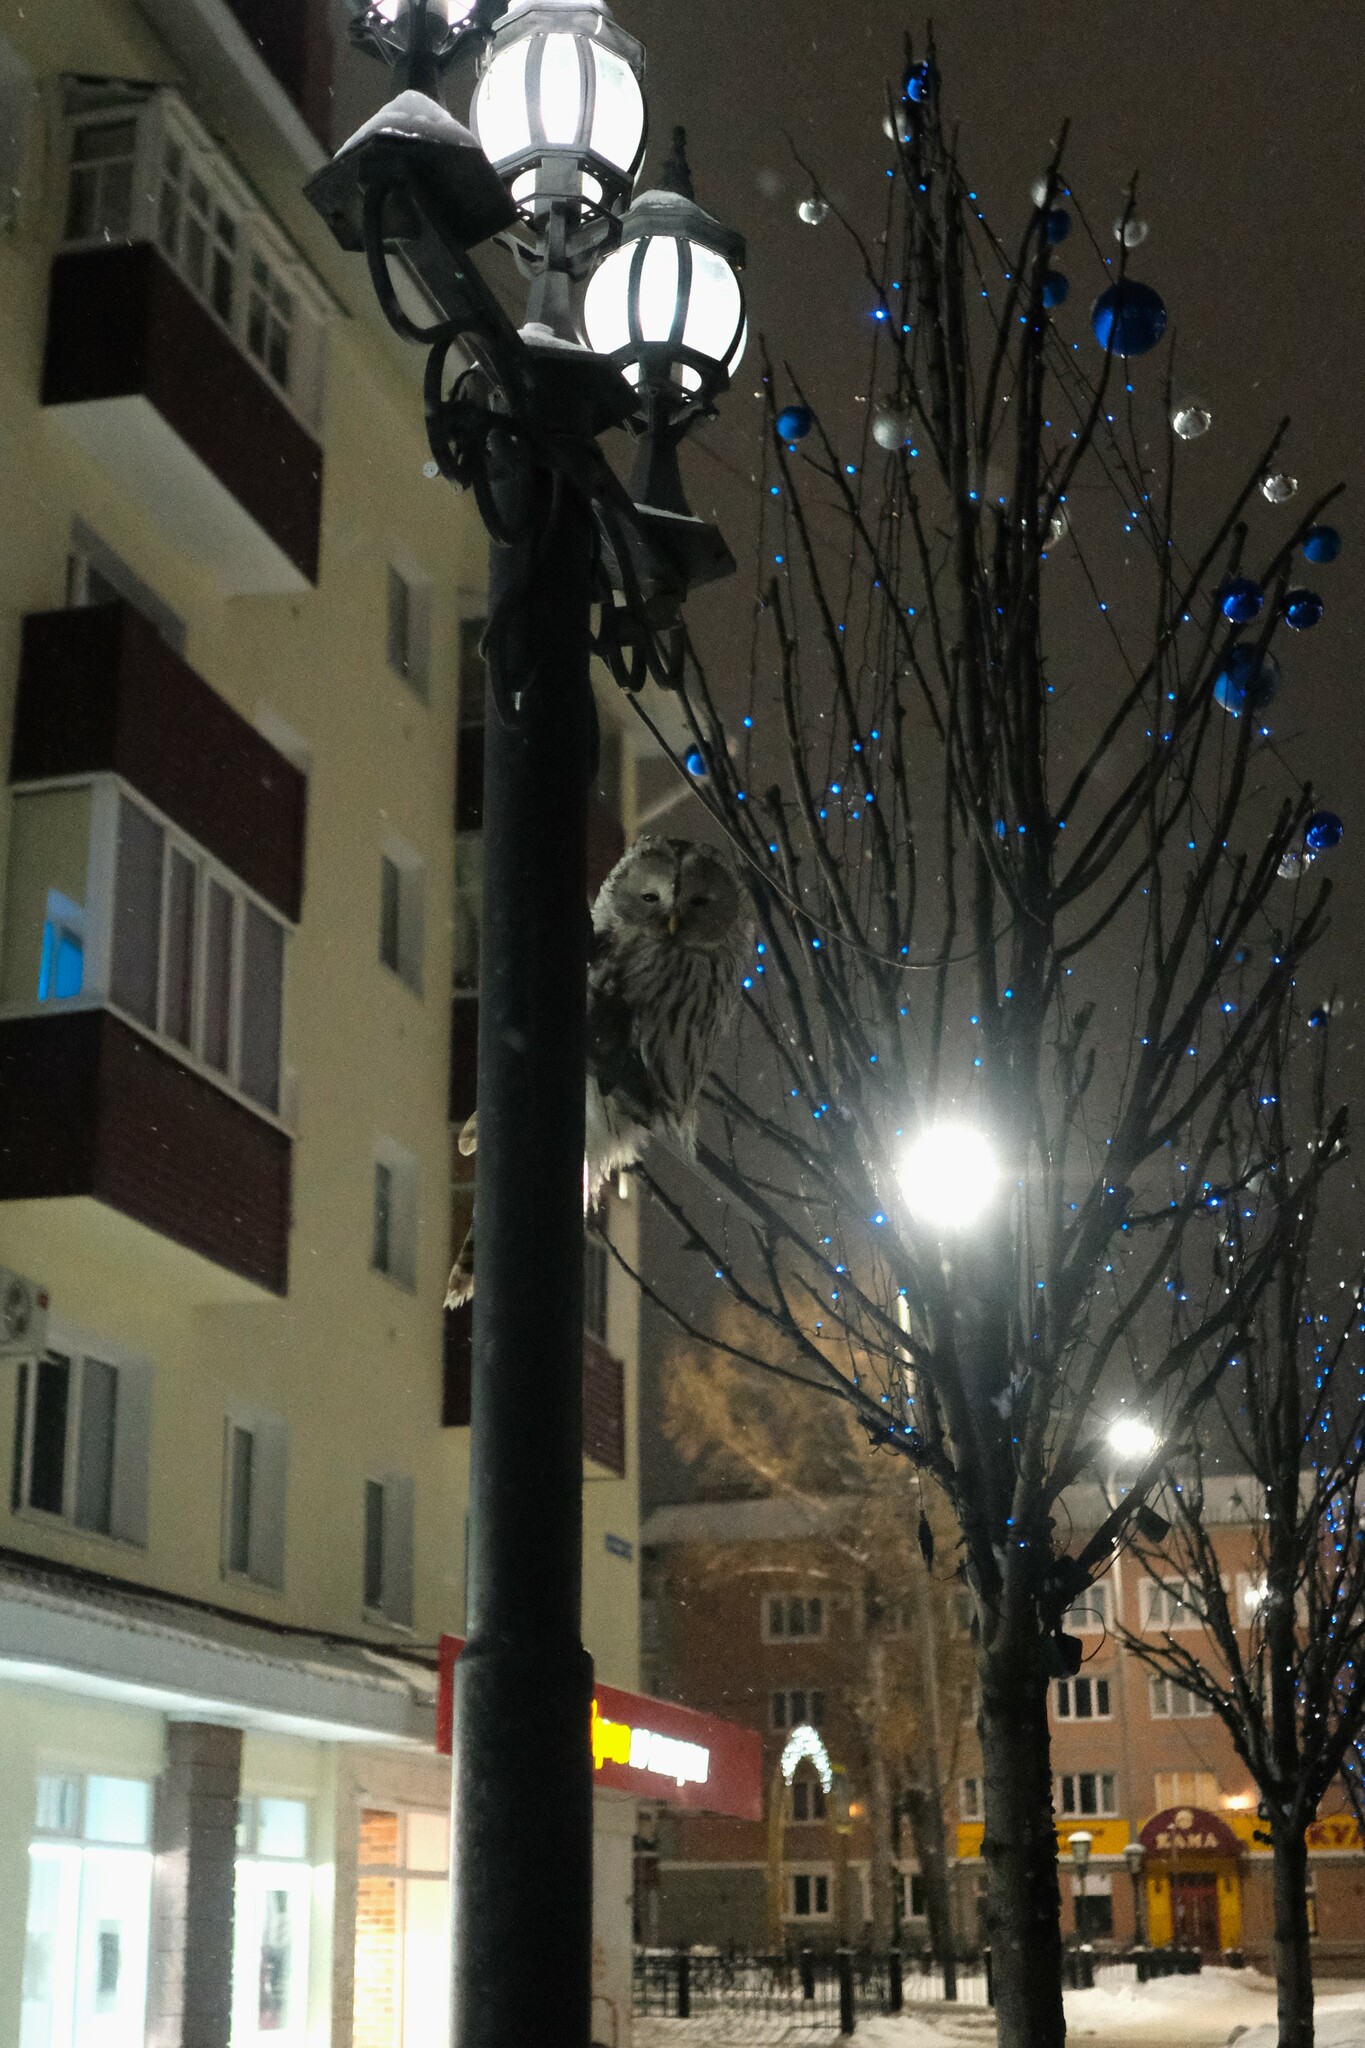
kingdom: Animalia
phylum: Chordata
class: Aves
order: Strigiformes
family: Strigidae
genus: Strix
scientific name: Strix uralensis
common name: Ural owl
